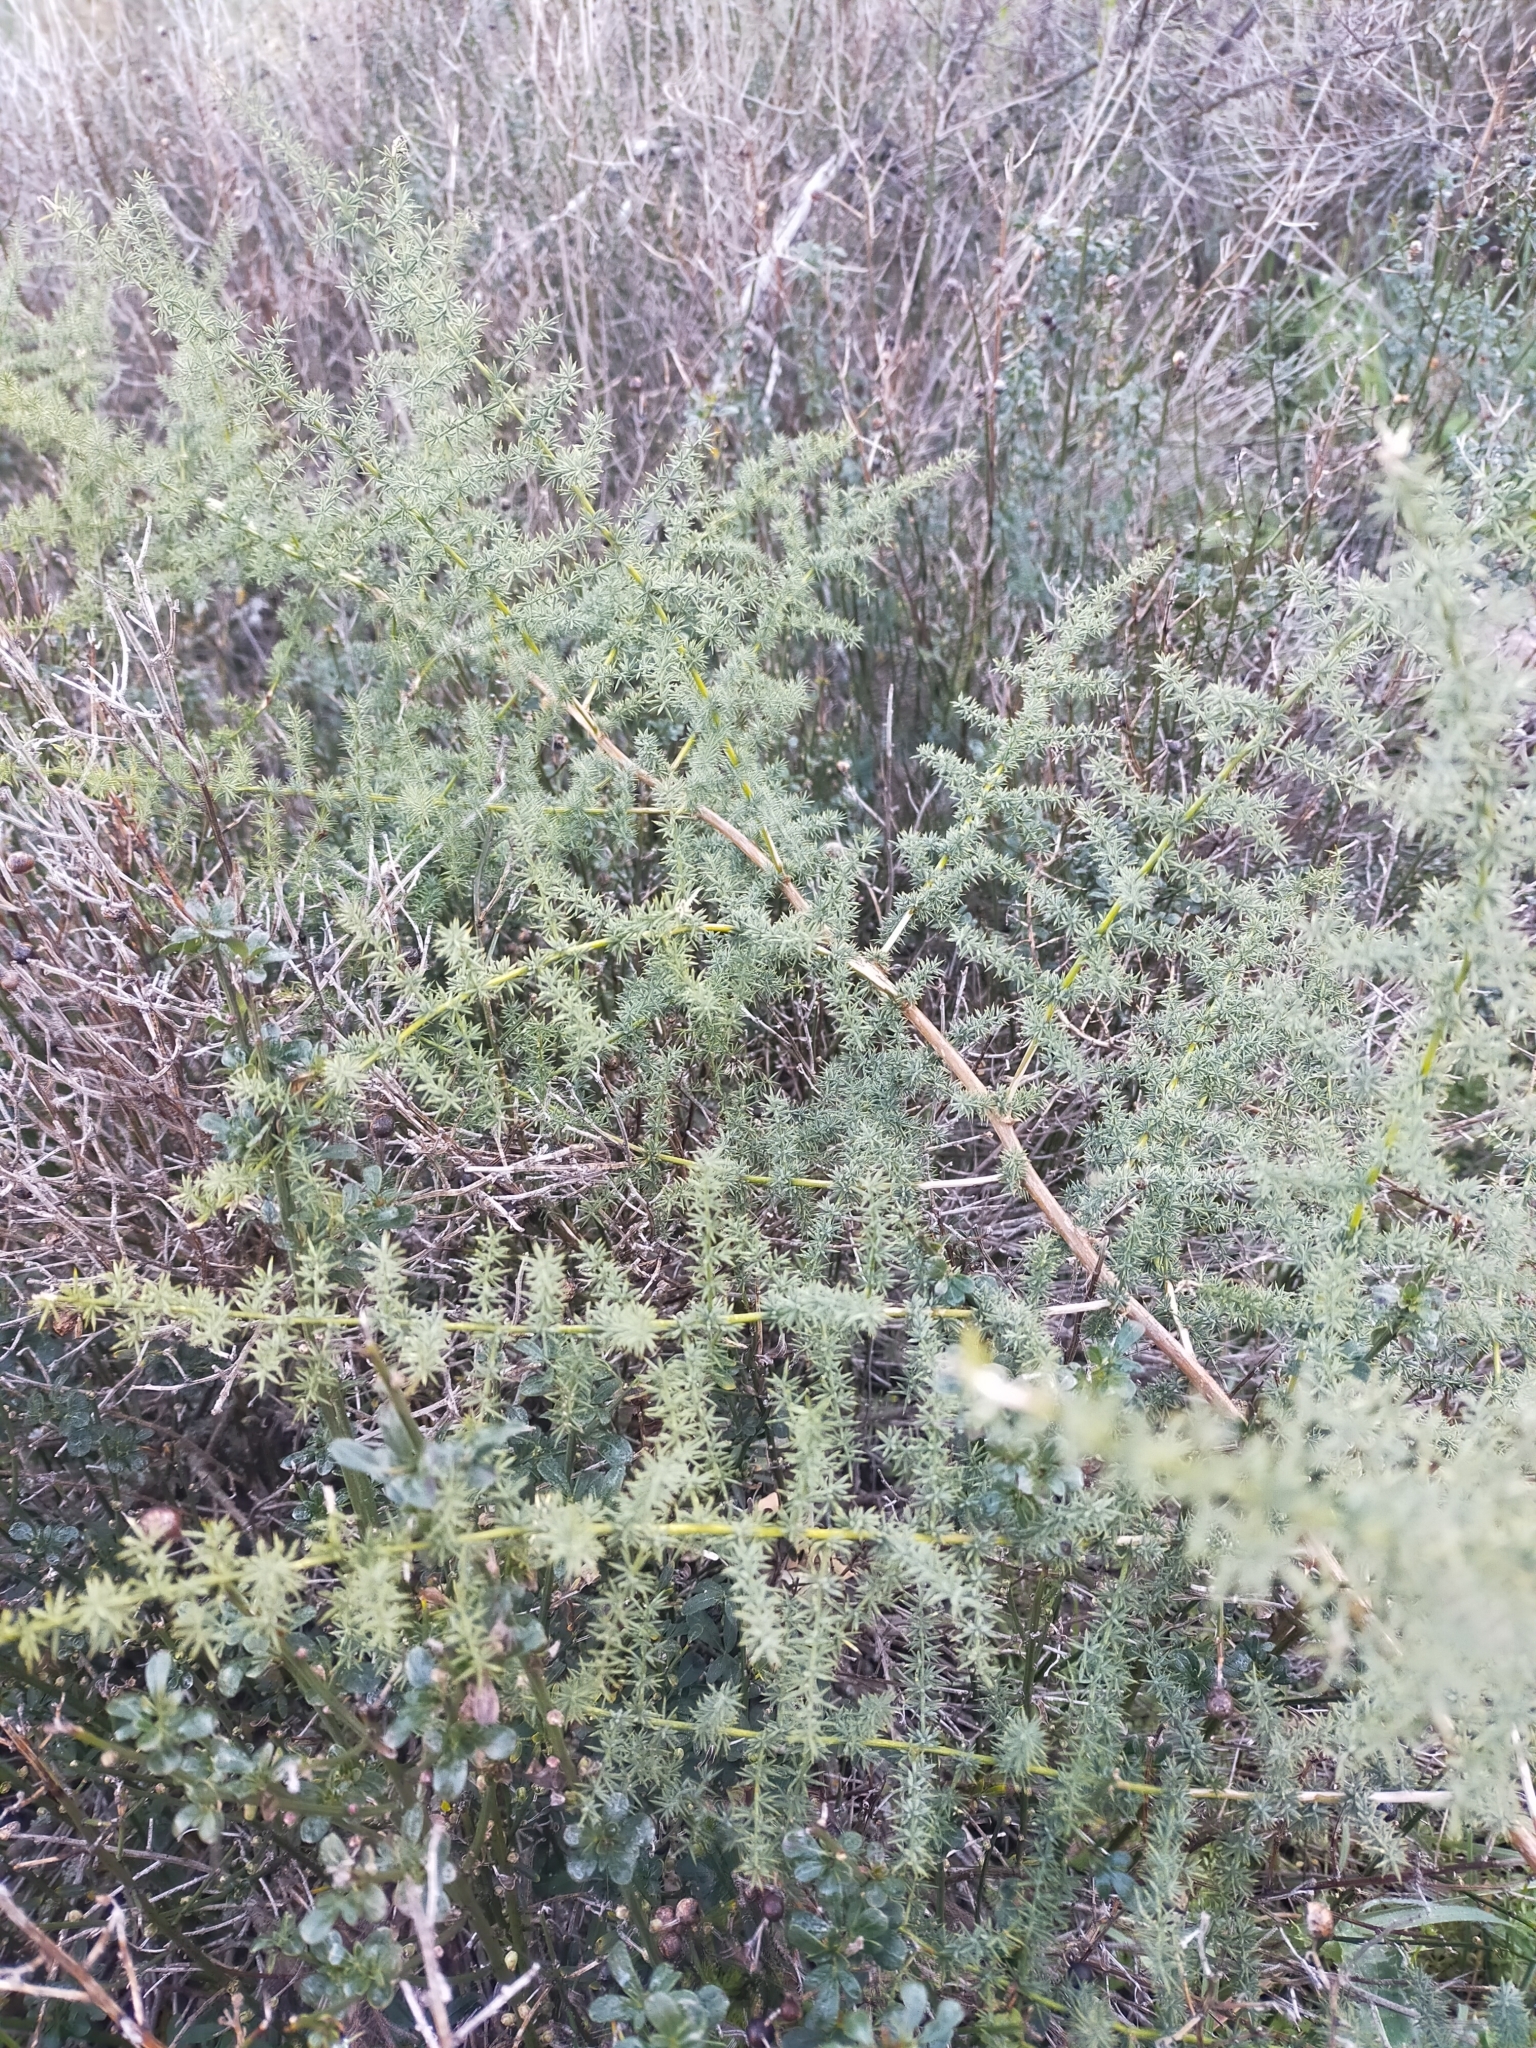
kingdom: Plantae
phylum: Tracheophyta
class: Liliopsida
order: Asparagales
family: Asparagaceae
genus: Asparagus
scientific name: Asparagus acutifolius
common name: Wild asparagus
